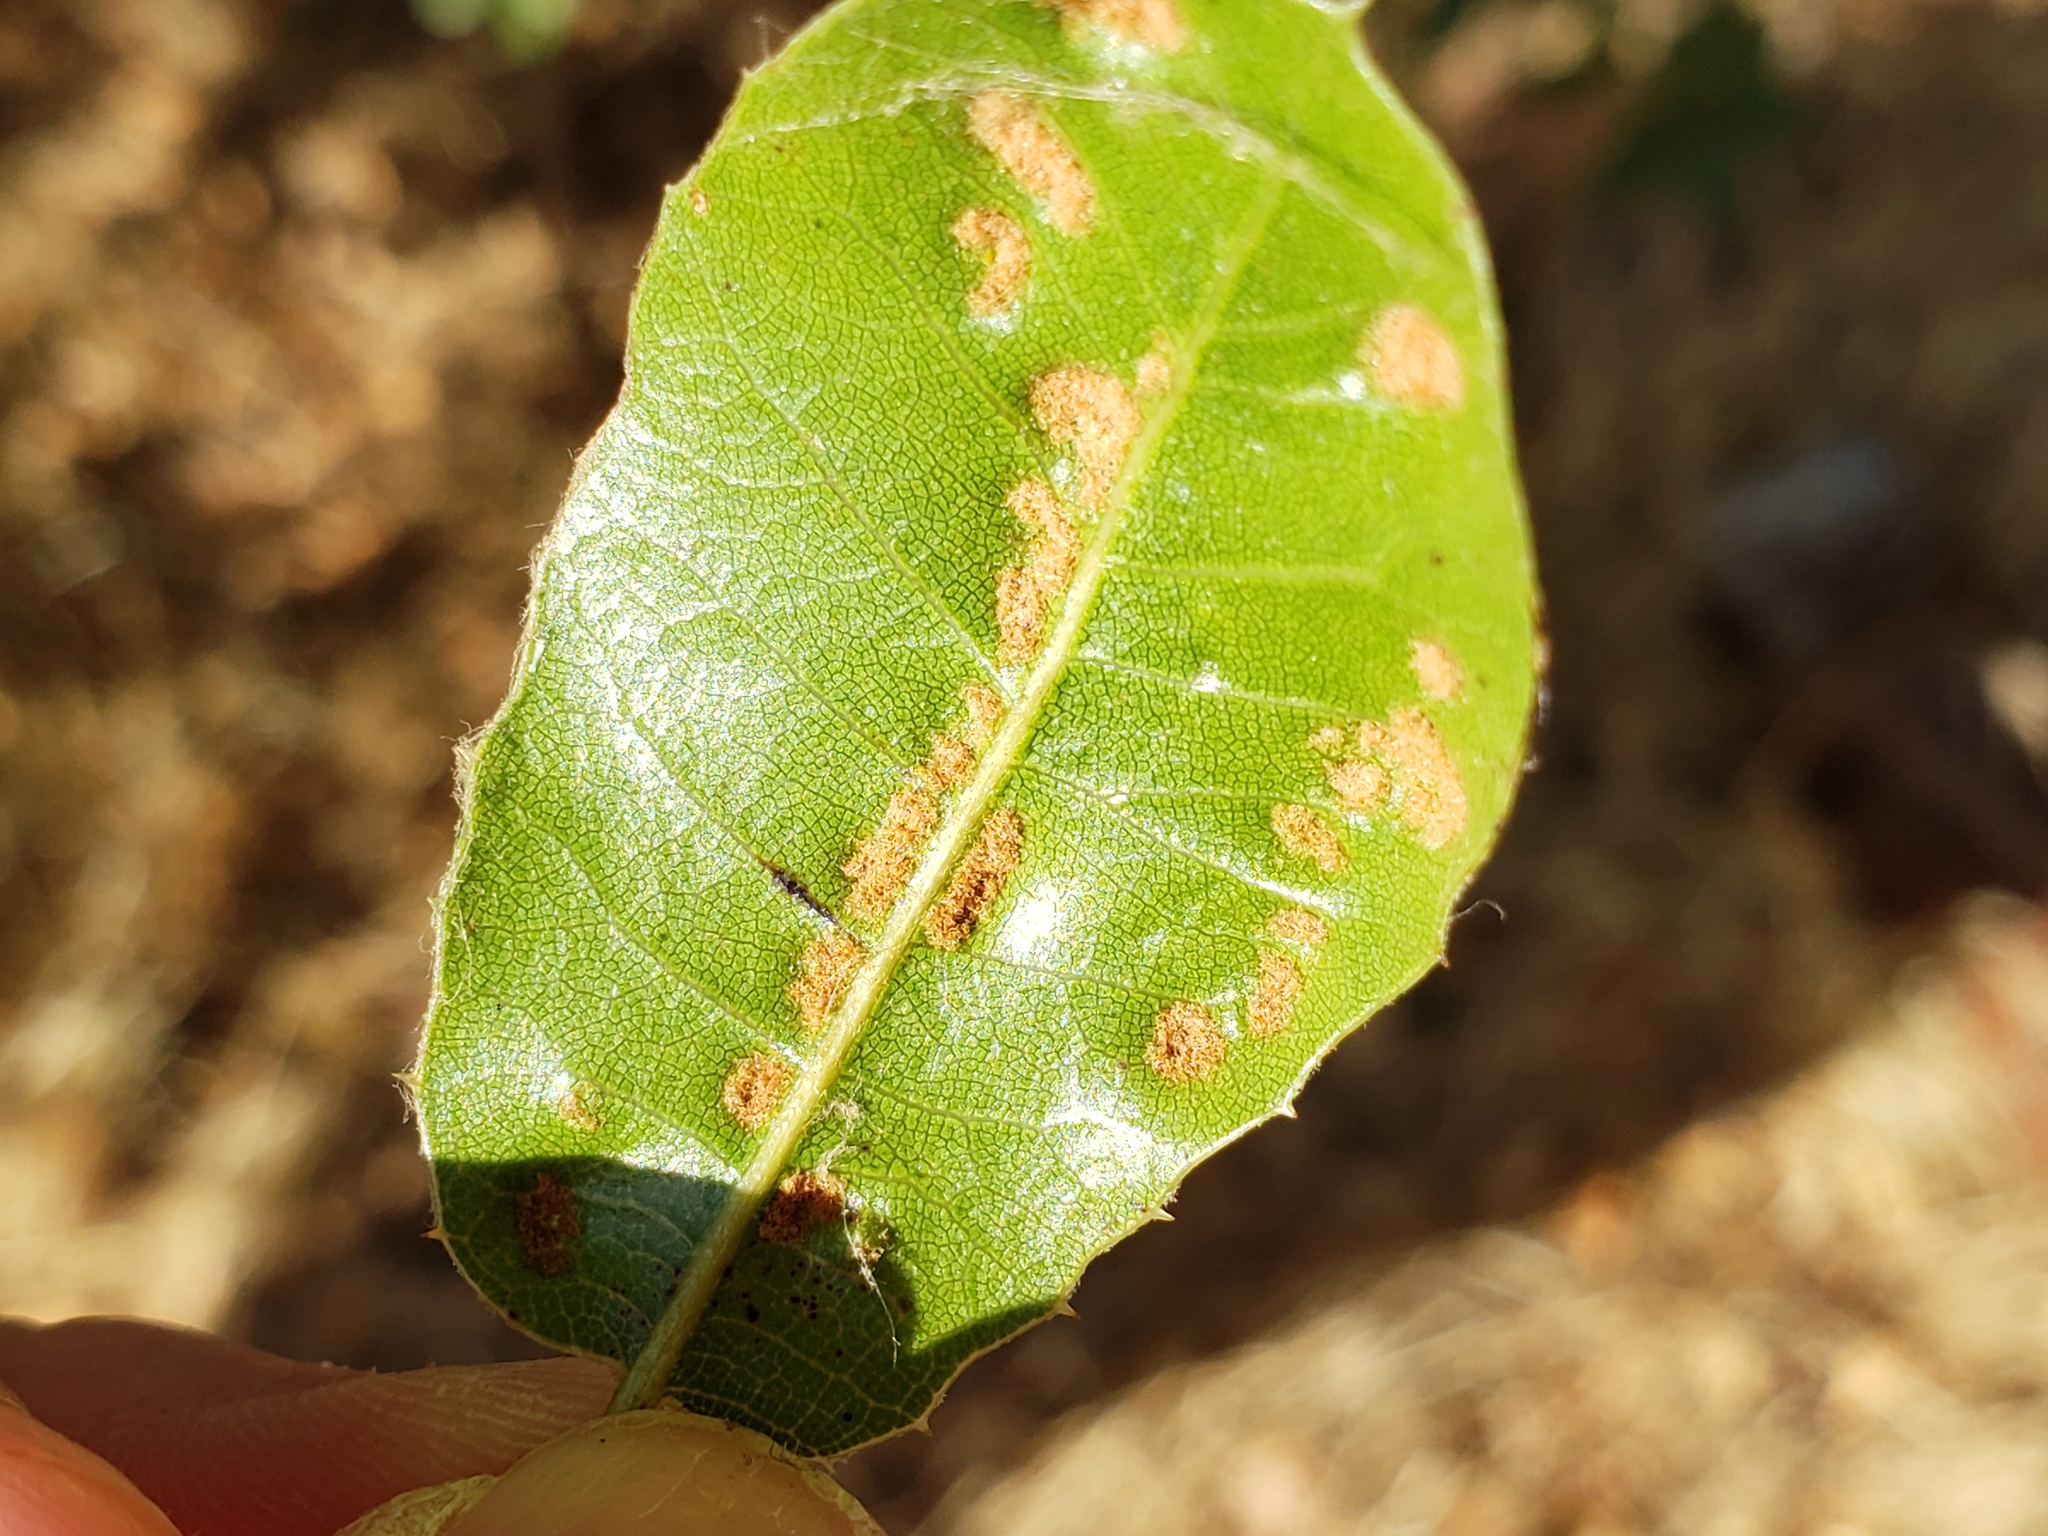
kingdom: Animalia
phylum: Arthropoda
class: Arachnida
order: Trombidiformes
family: Eriophyidae
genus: Aceria
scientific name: Aceria
